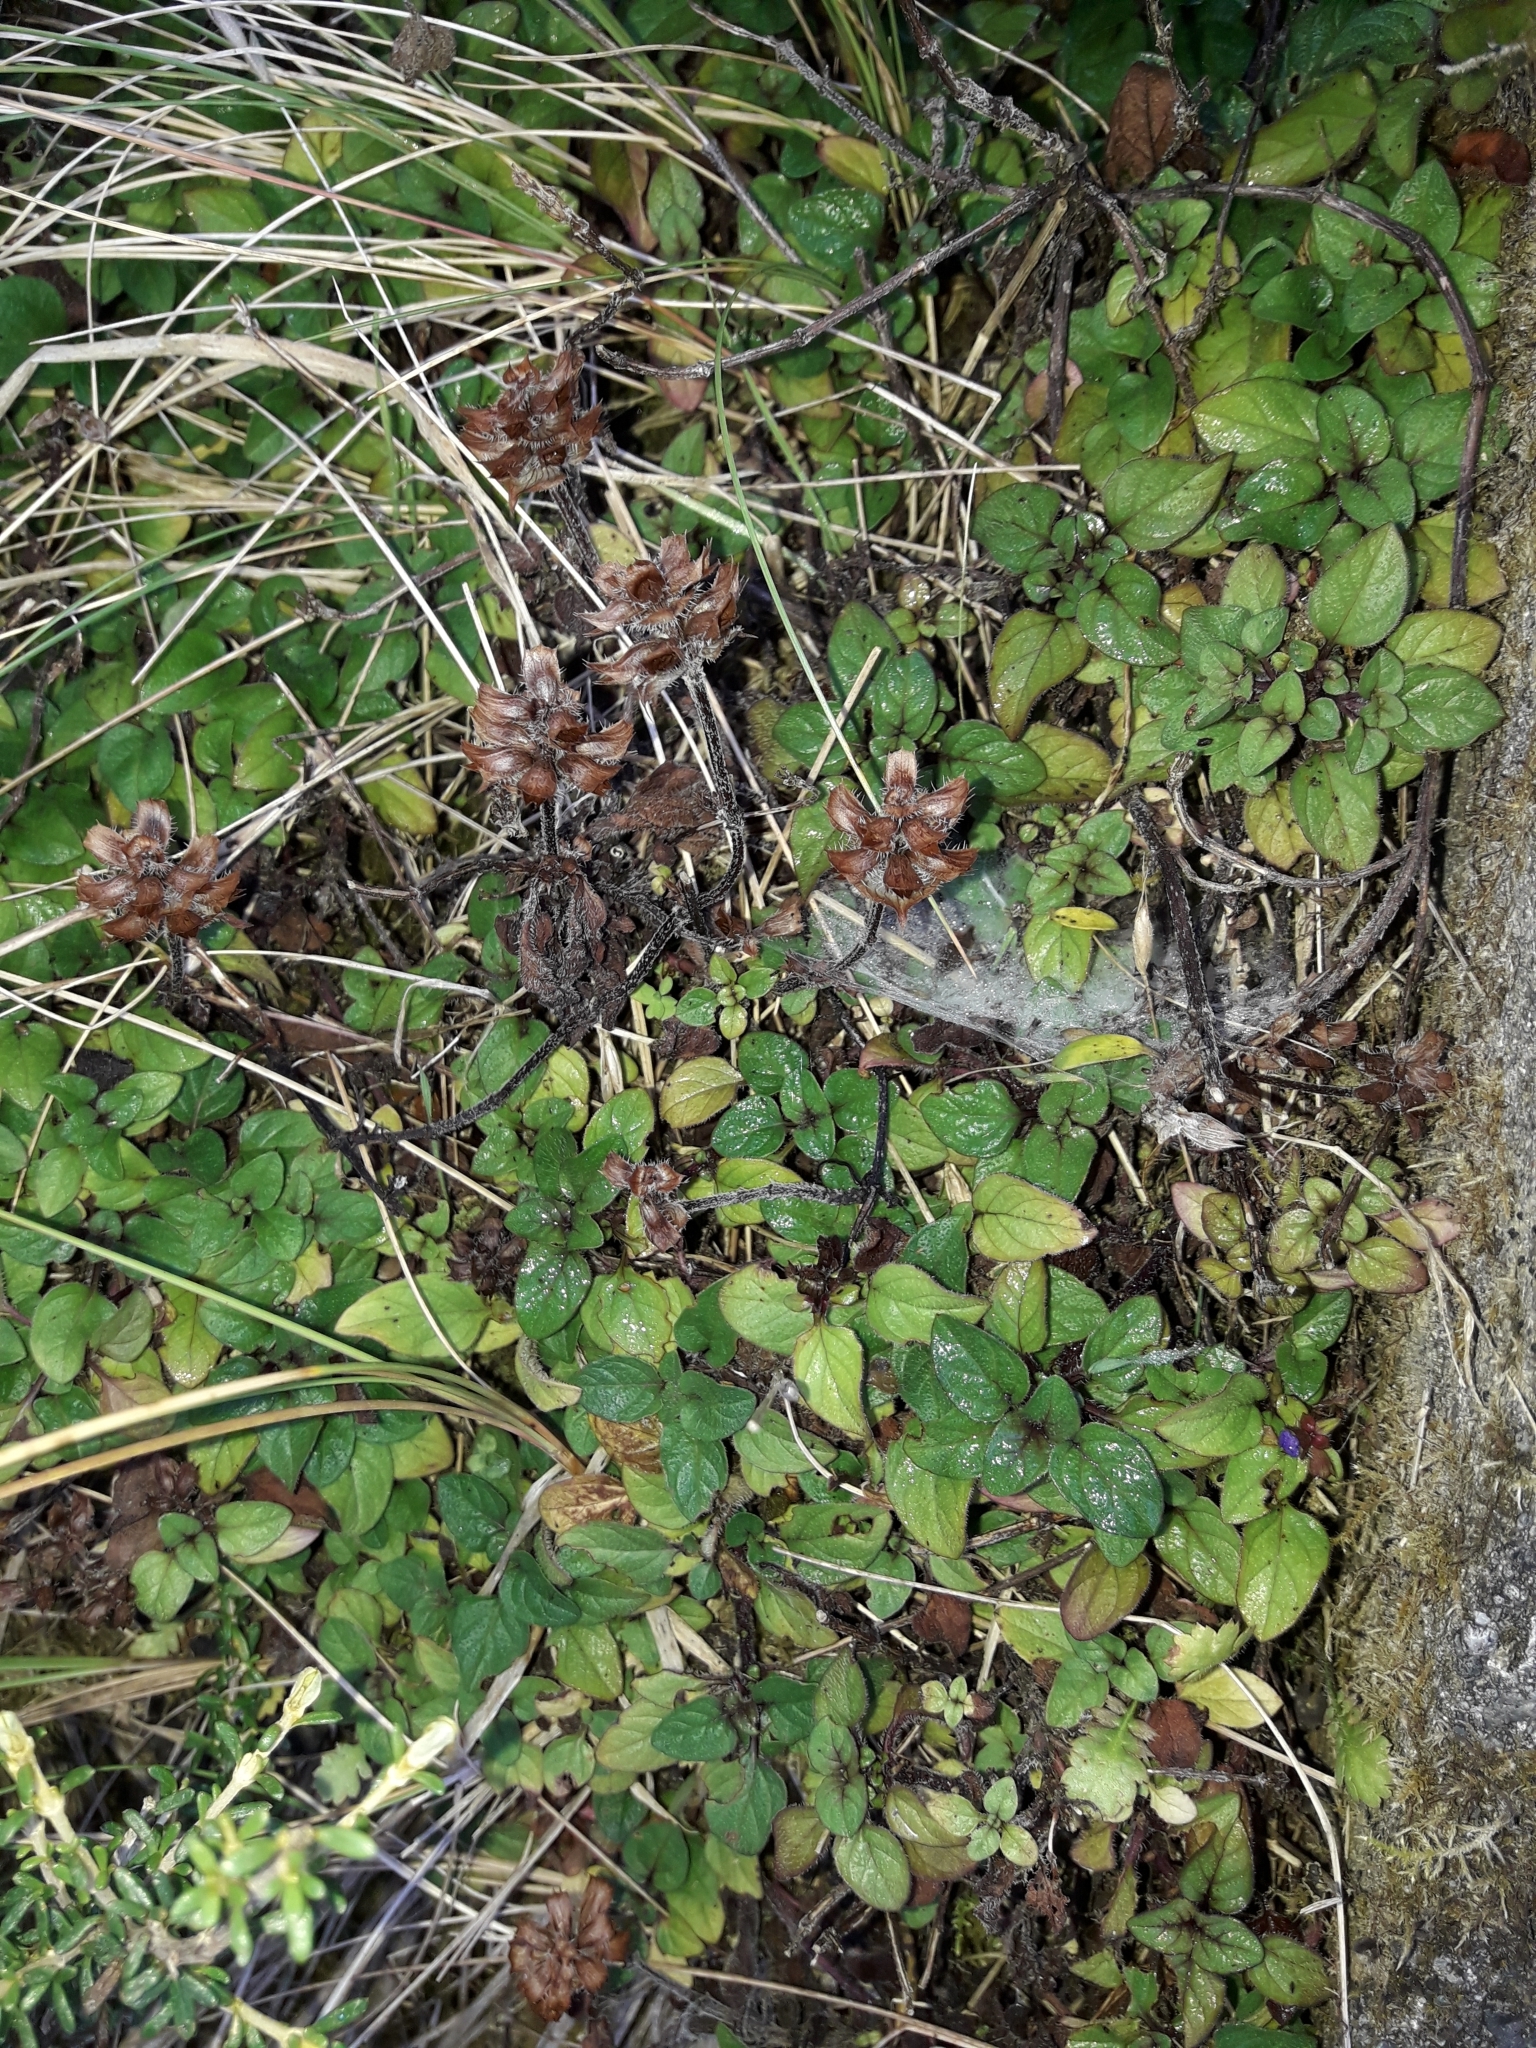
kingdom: Plantae
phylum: Tracheophyta
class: Magnoliopsida
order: Lamiales
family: Lamiaceae
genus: Prunella
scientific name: Prunella vulgaris
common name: Heal-all
